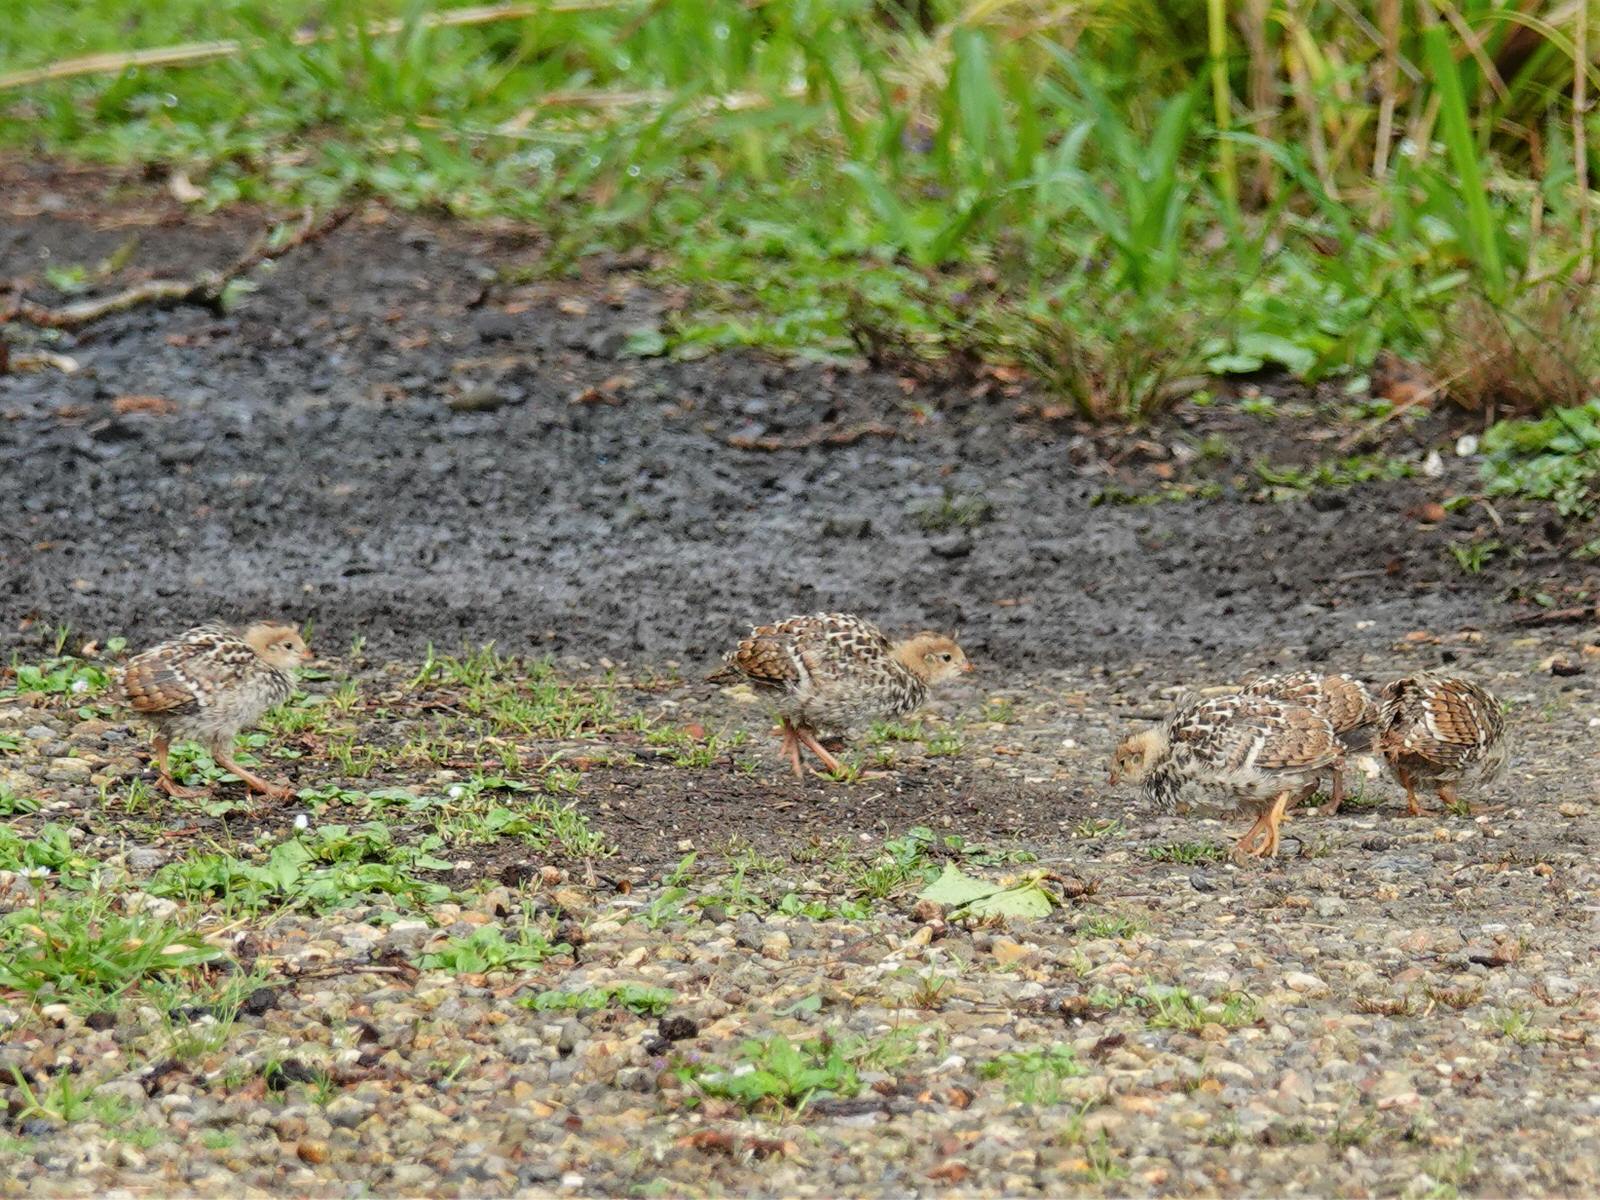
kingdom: Animalia
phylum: Chordata
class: Aves
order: Galliformes
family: Odontophoridae
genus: Callipepla
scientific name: Callipepla californica
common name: California quail
